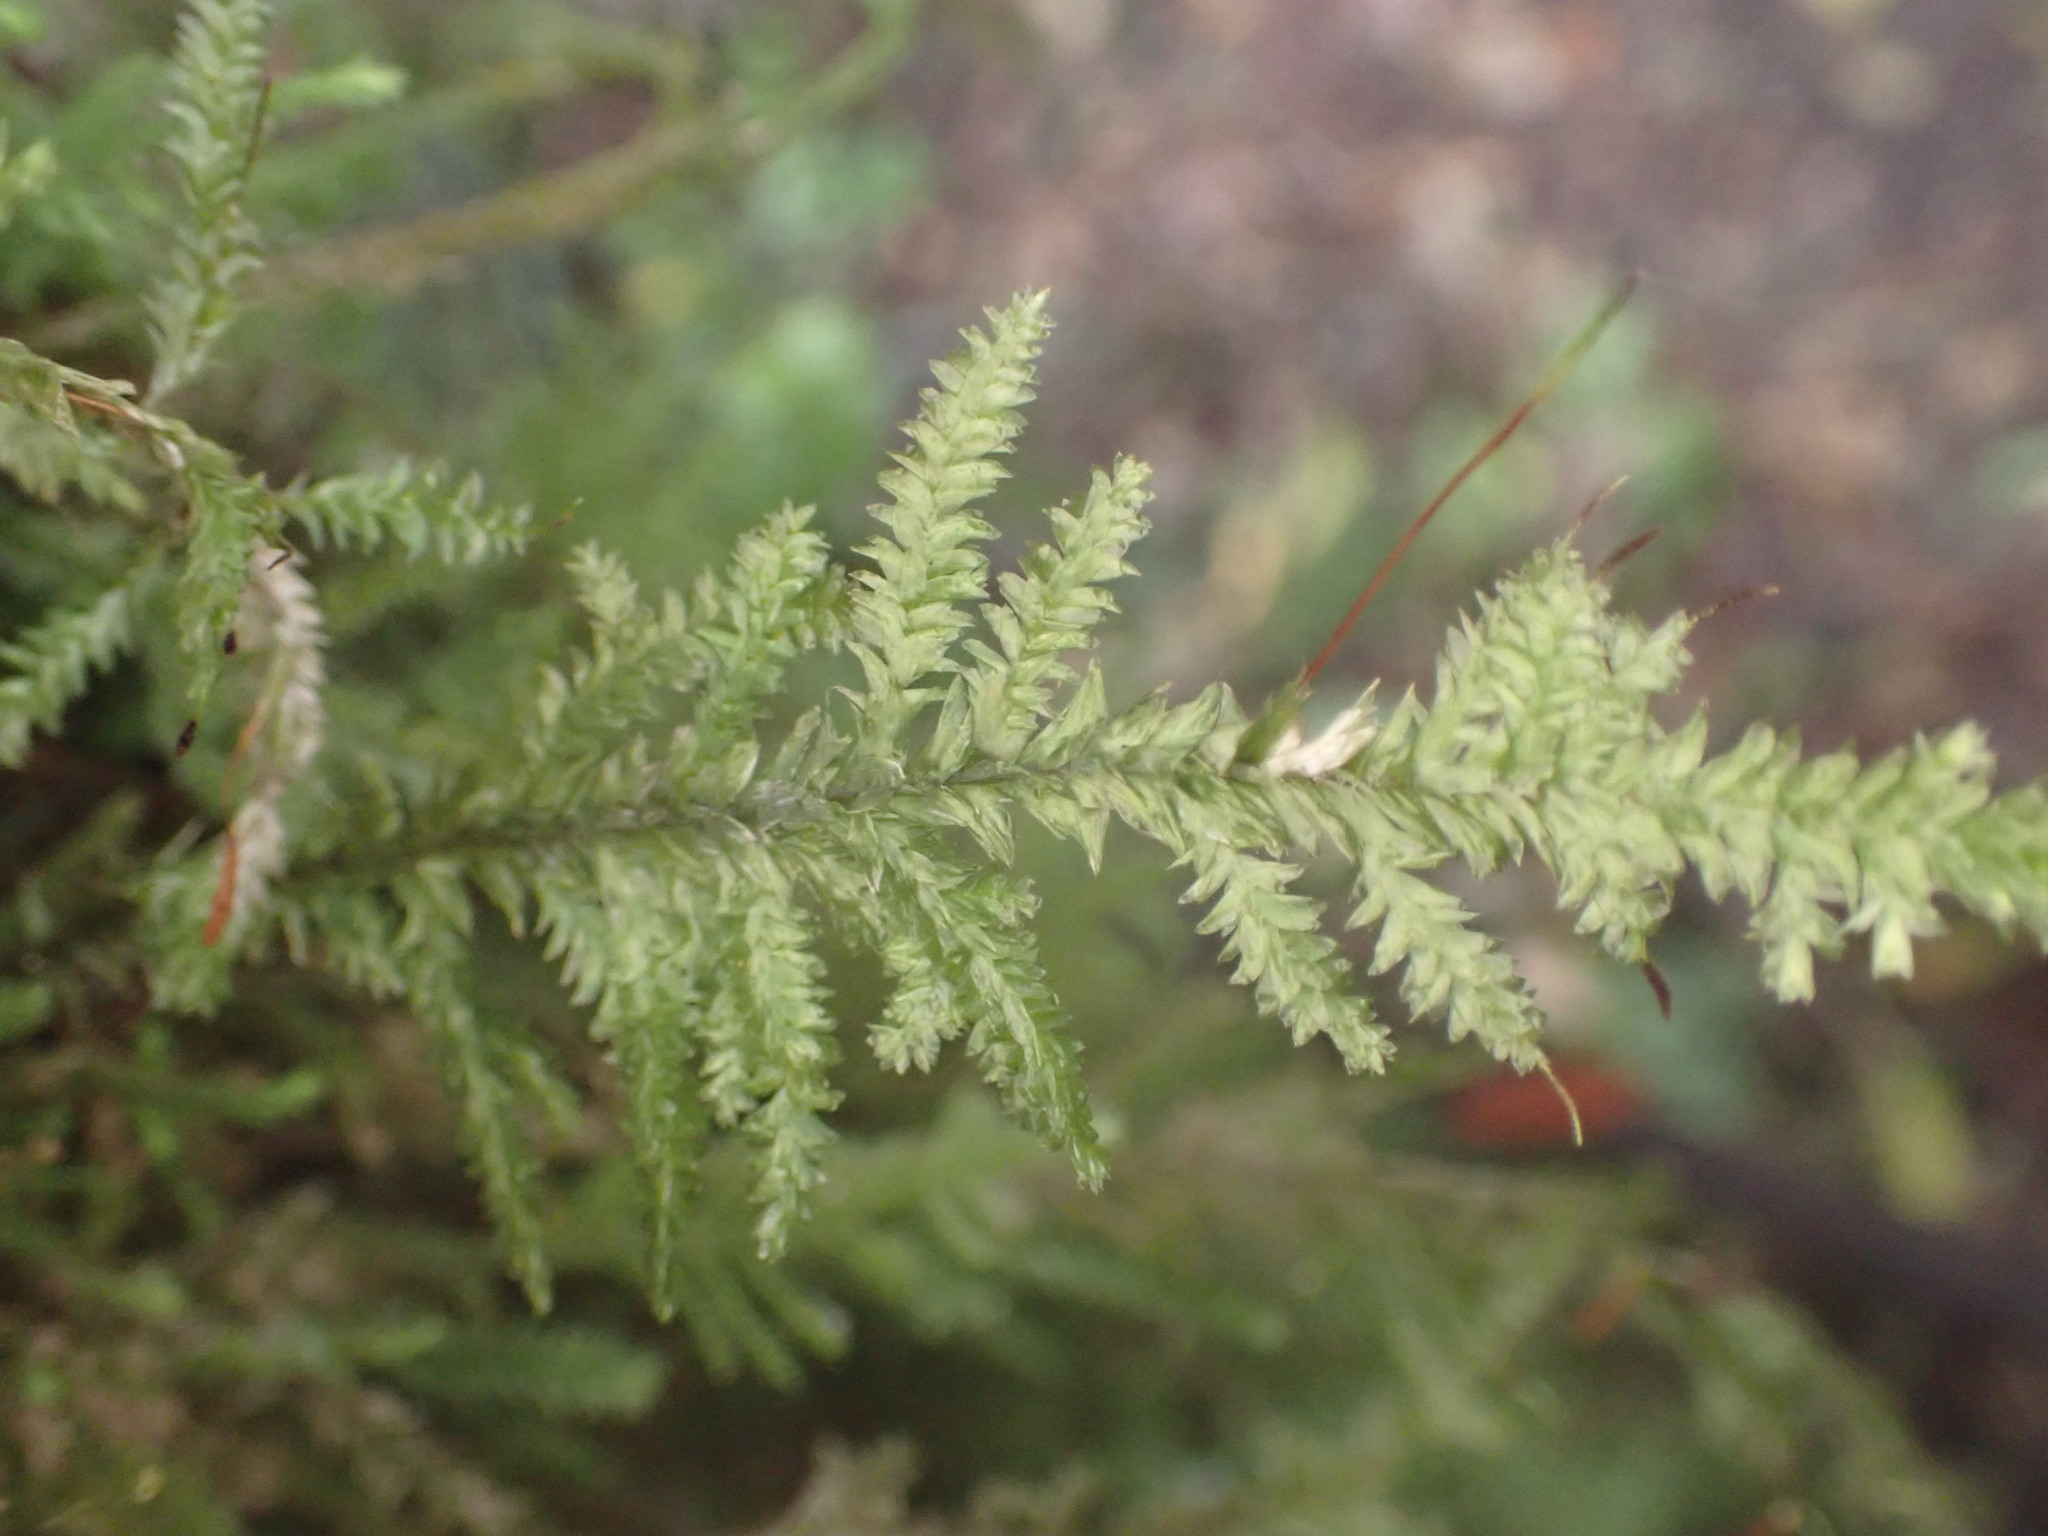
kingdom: Plantae
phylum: Bryophyta
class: Bryopsida
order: Hypnales
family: Trachylomataceae
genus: Trachyloma
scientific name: Trachyloma diversinerve
